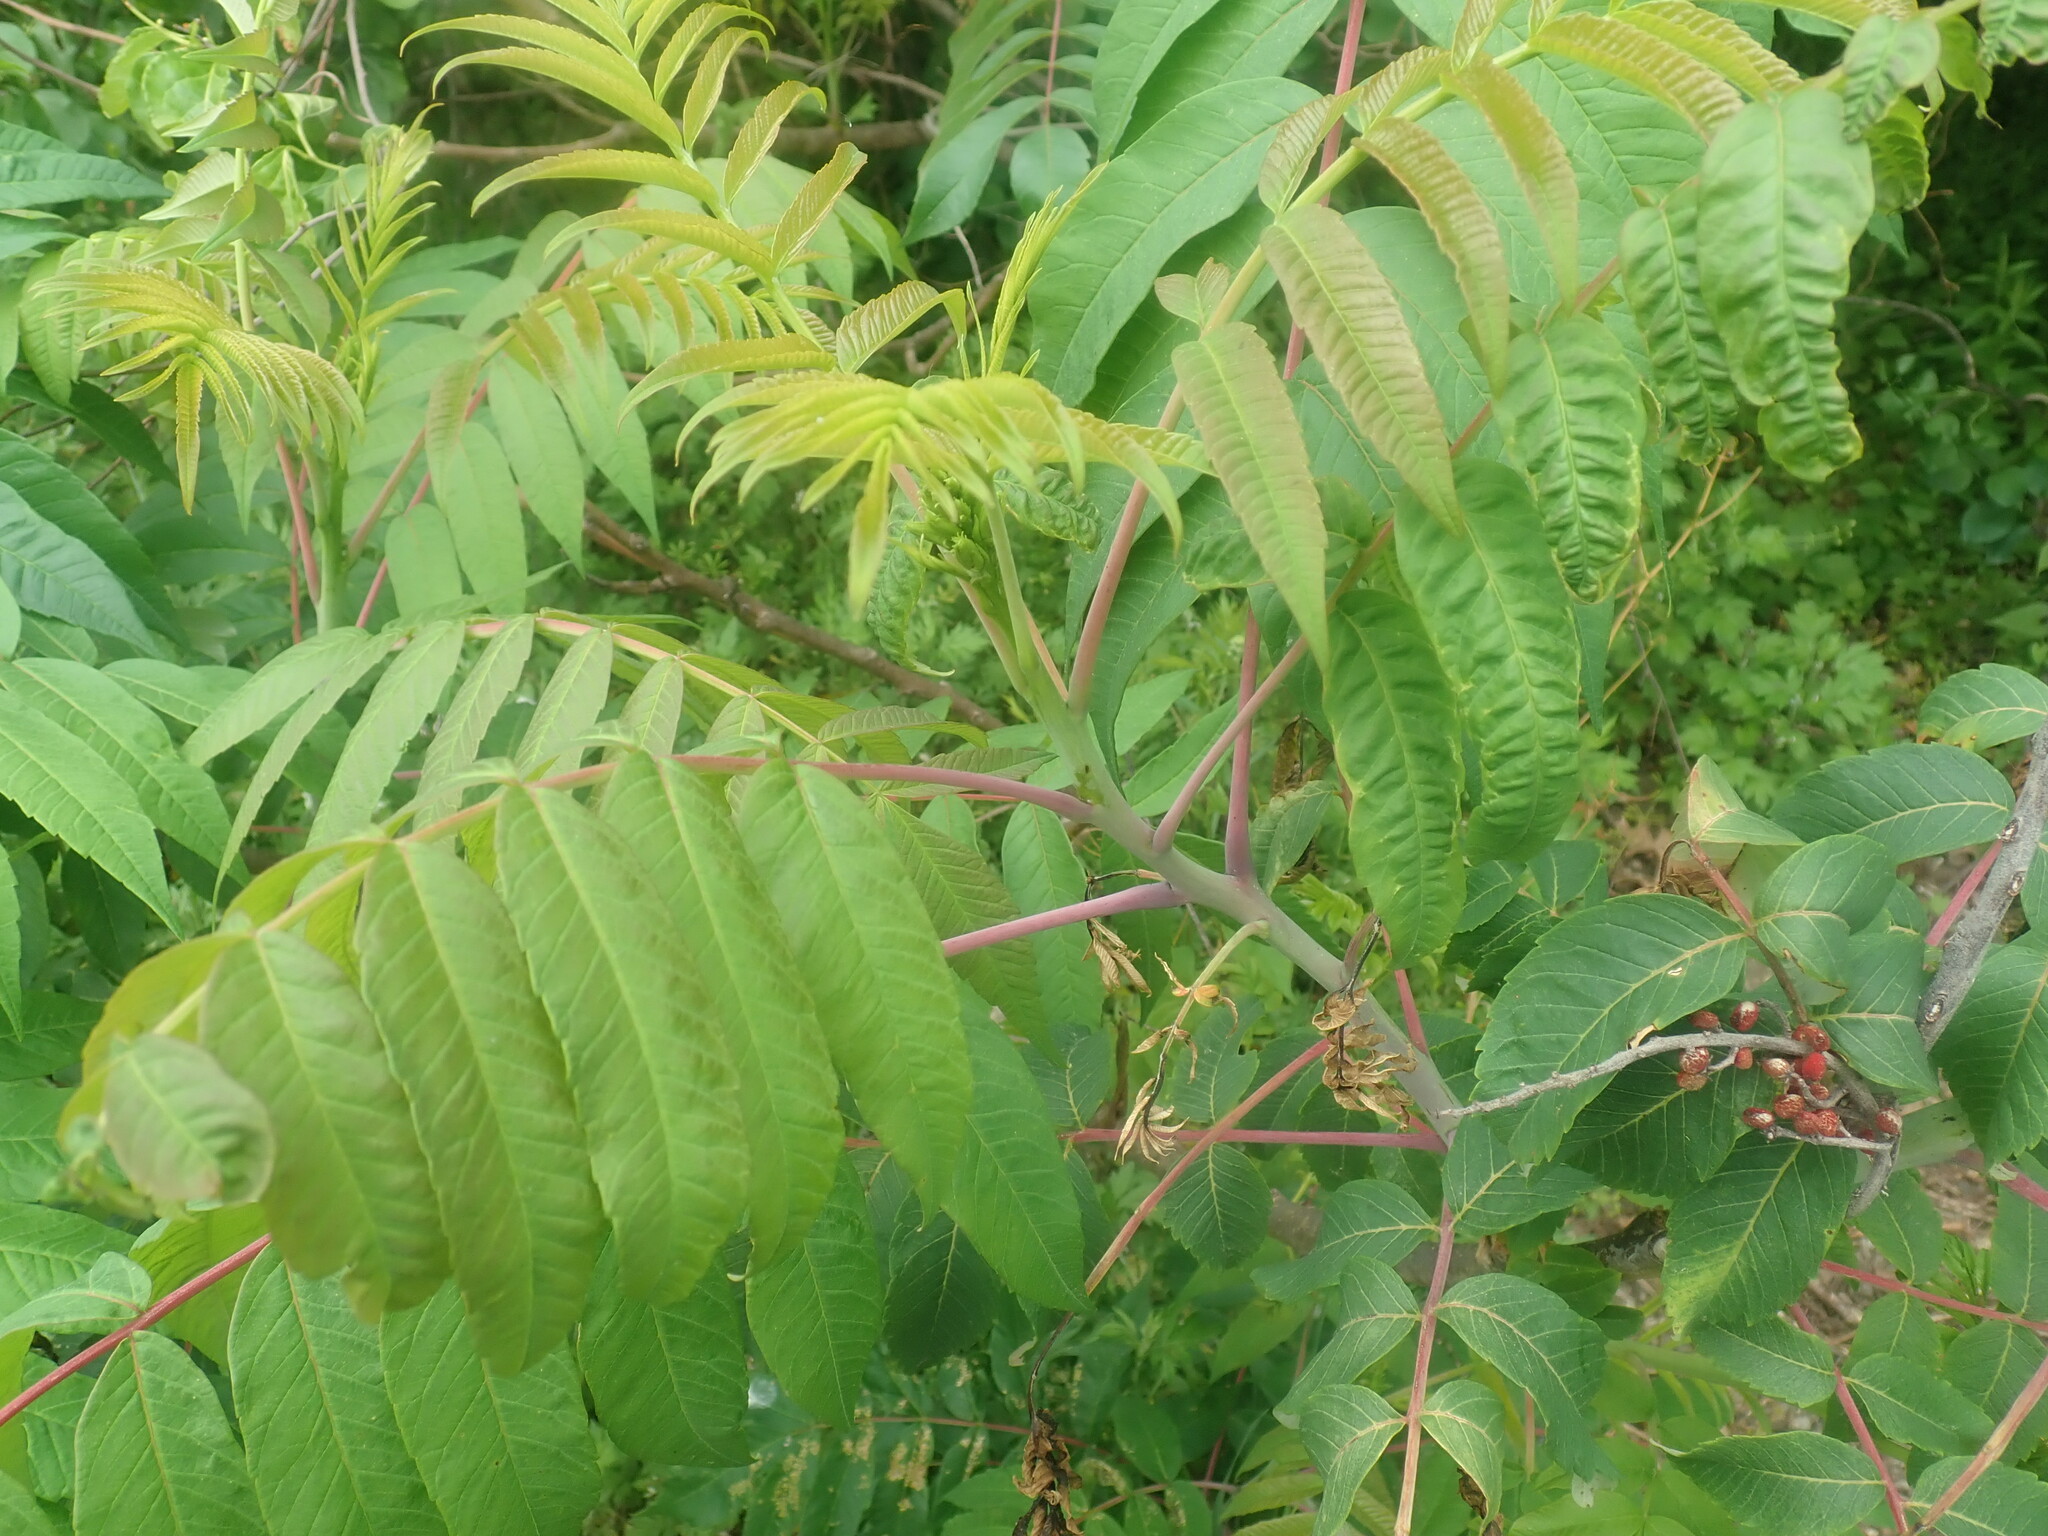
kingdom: Plantae
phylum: Tracheophyta
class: Magnoliopsida
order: Sapindales
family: Anacardiaceae
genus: Rhus
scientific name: Rhus glabra
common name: Scarlet sumac
